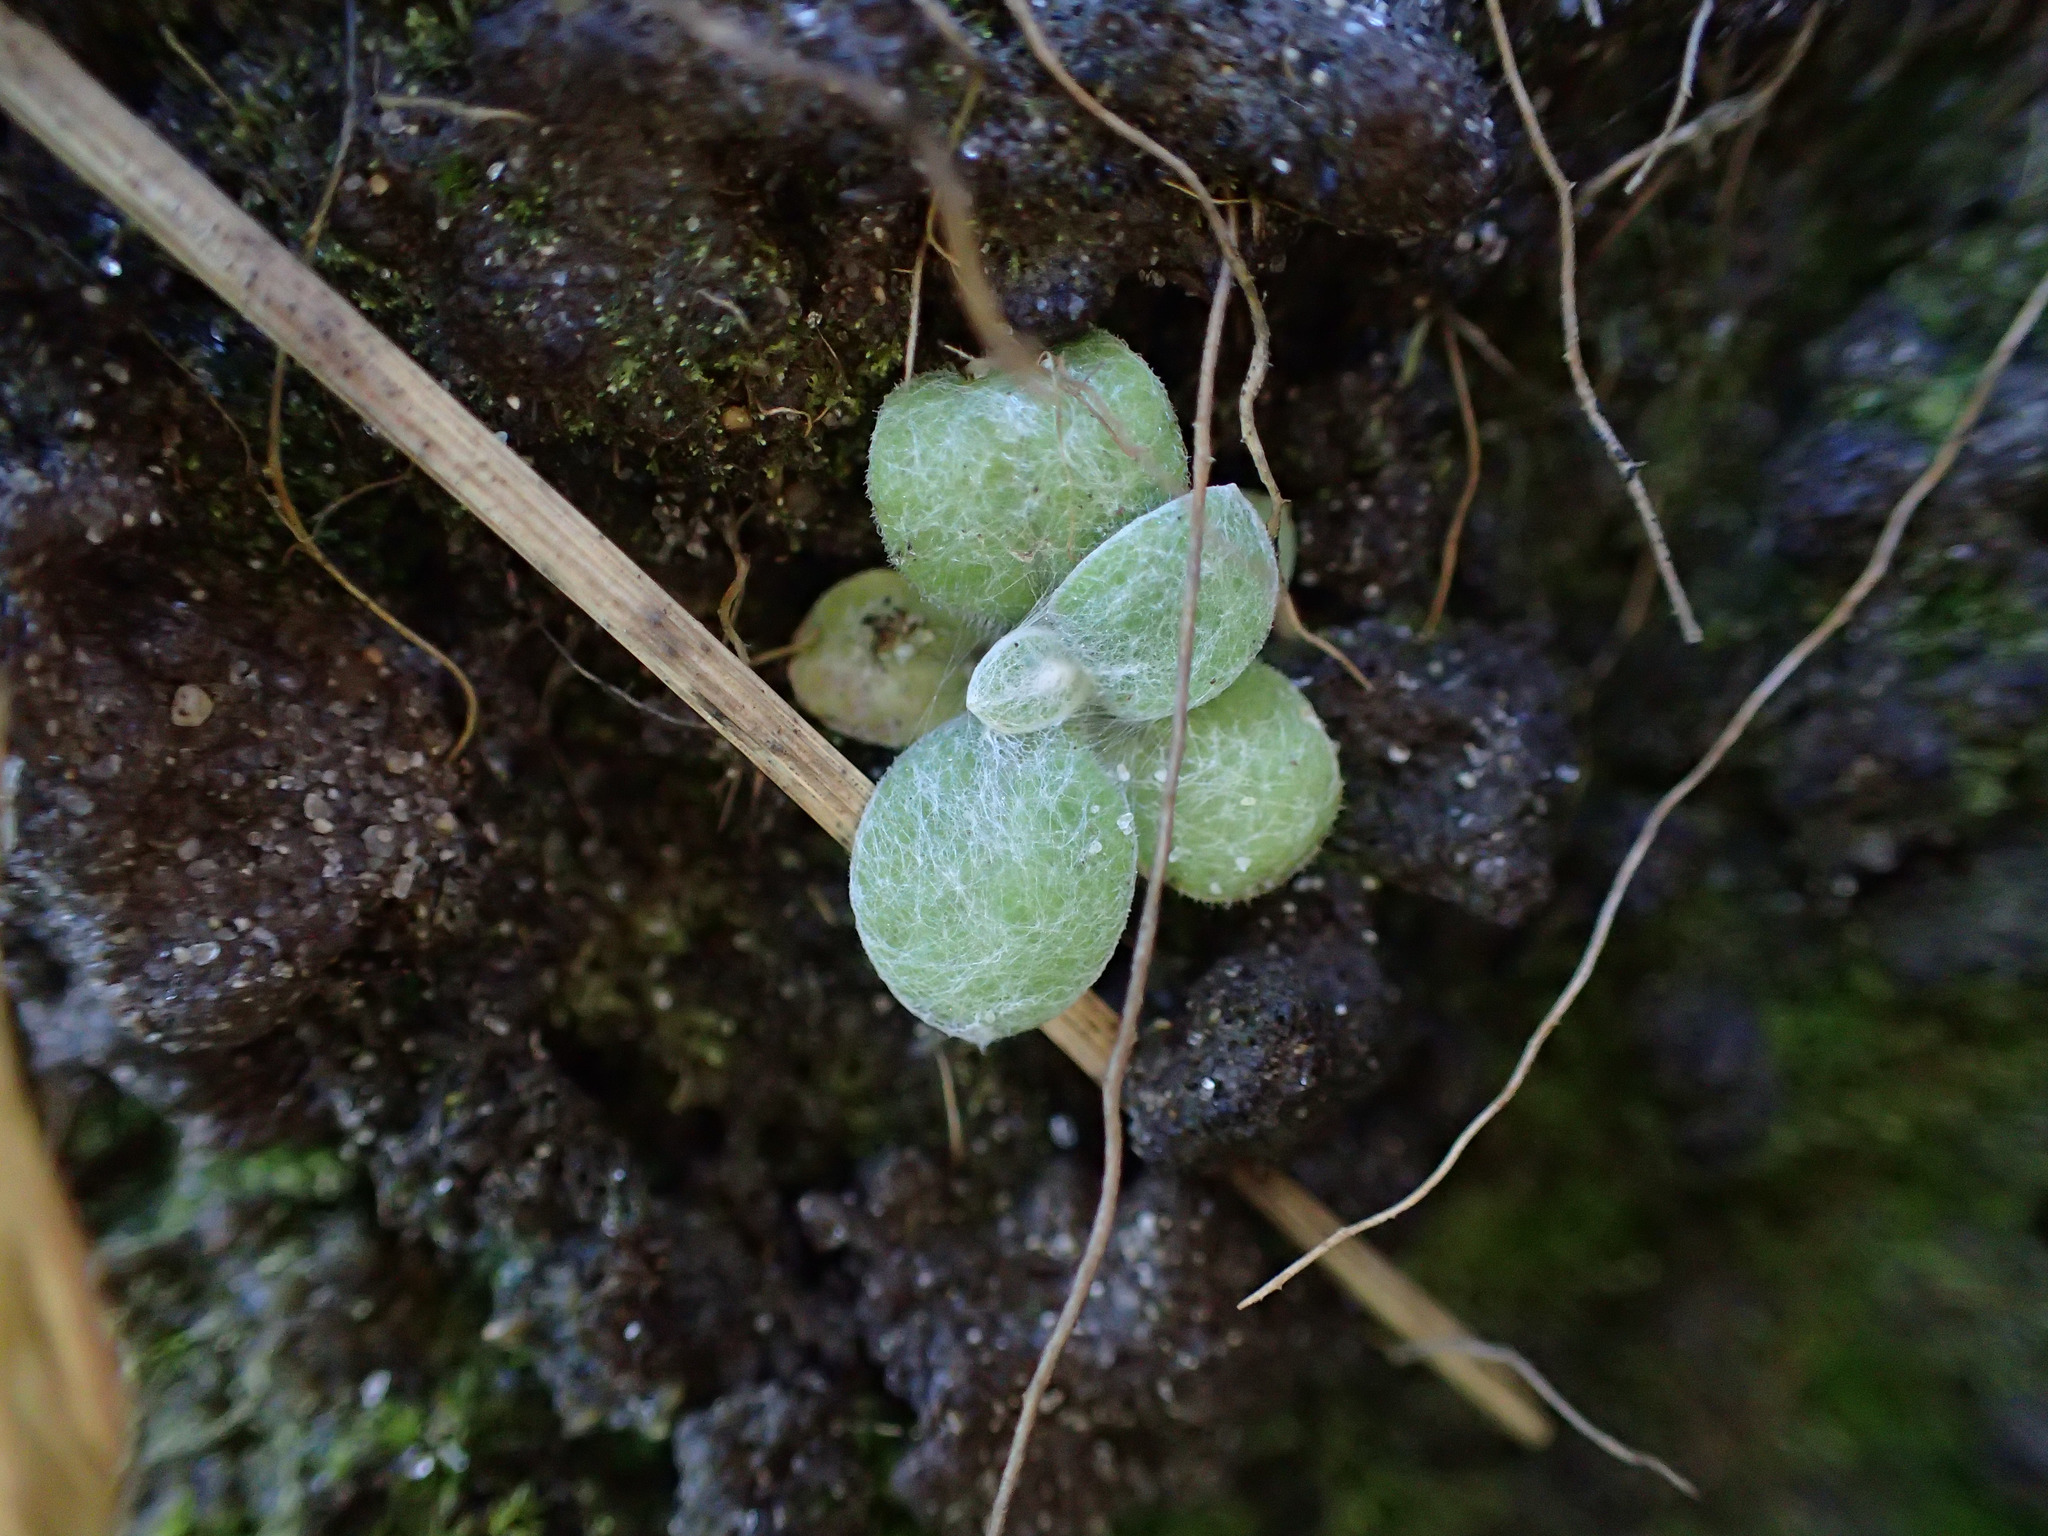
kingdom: Plantae
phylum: Tracheophyta
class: Magnoliopsida
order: Asterales
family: Asteraceae
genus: Helichrysum
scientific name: Helichrysum luteoalbum
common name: Daisy
